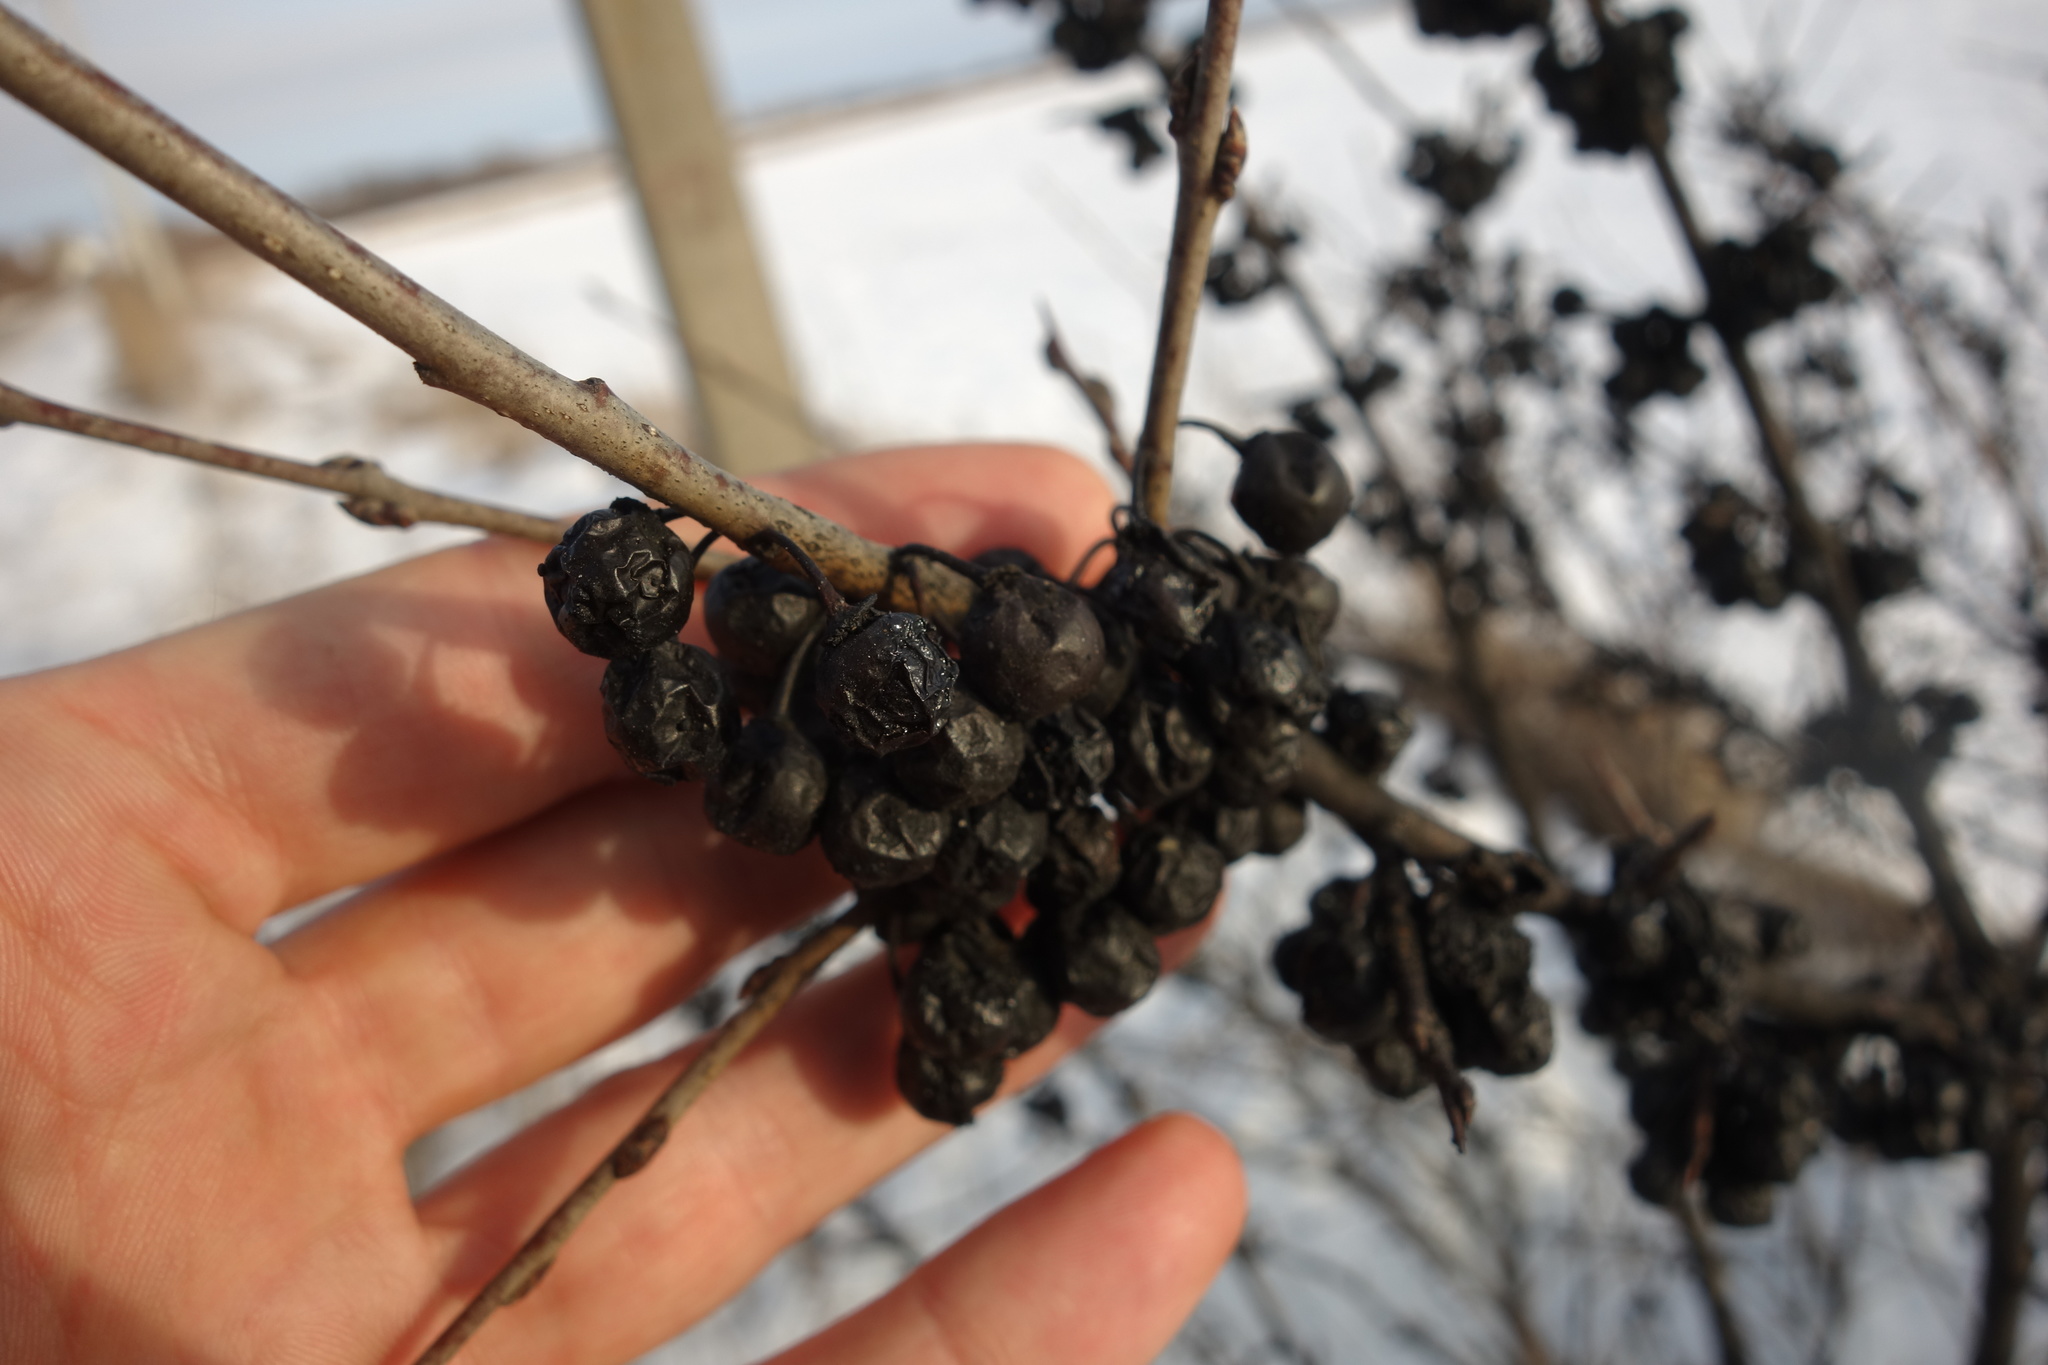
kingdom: Plantae
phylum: Tracheophyta
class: Magnoliopsida
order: Rosales
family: Rhamnaceae
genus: Rhamnus
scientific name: Rhamnus cathartica
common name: Common buckthorn
